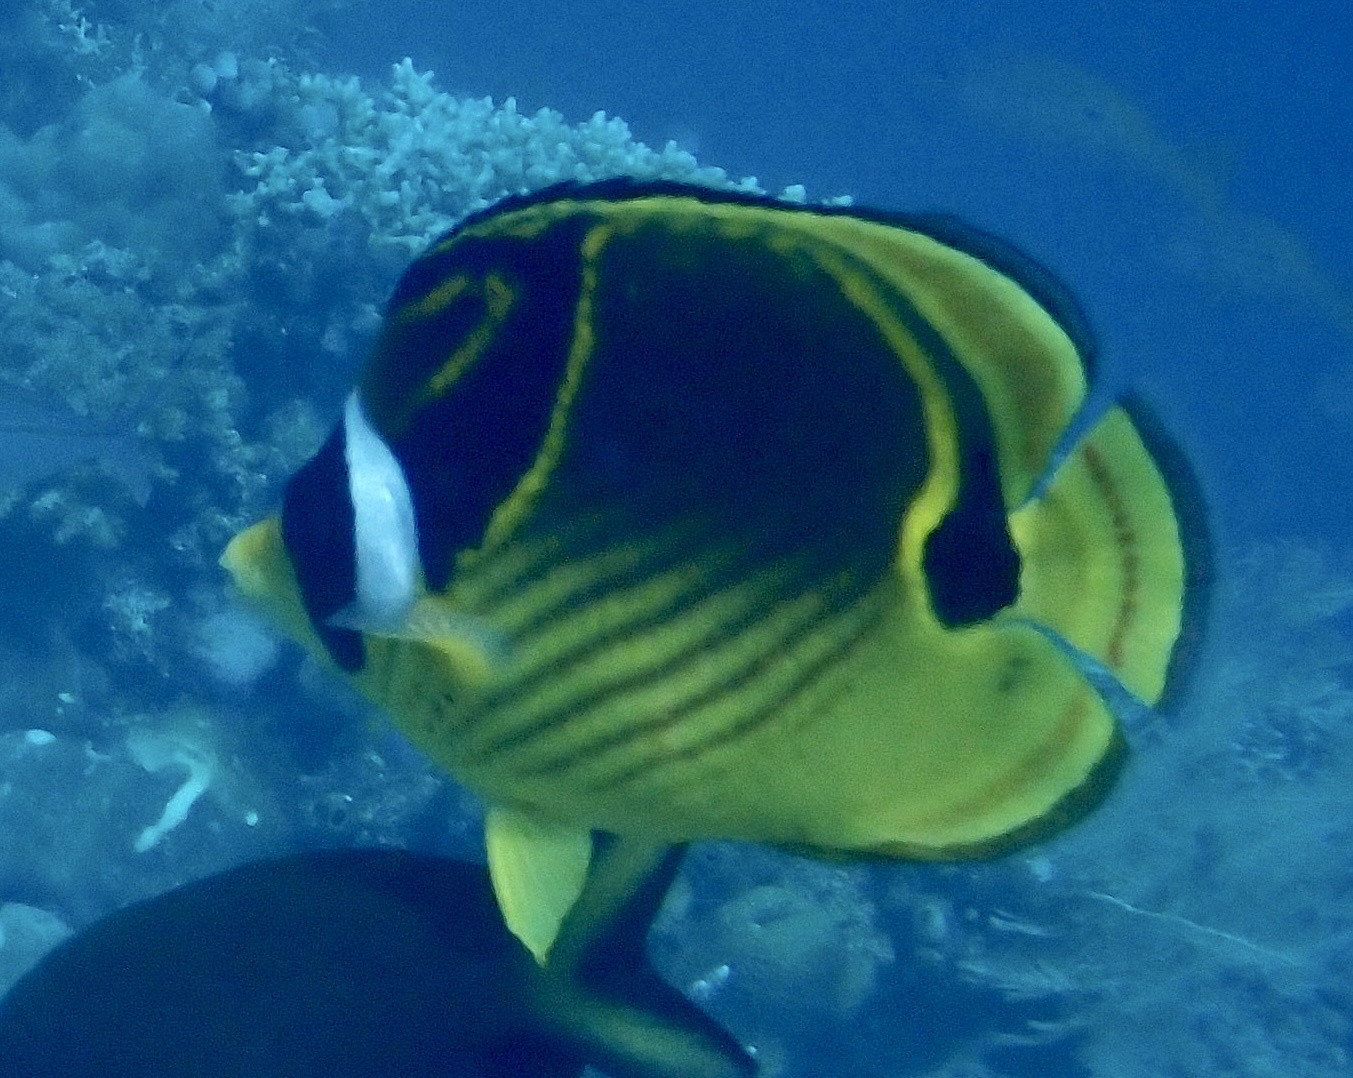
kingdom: Animalia
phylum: Chordata
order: Perciformes
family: Chaetodontidae
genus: Chaetodon
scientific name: Chaetodon lunula
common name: Raccoon butterflyfish
